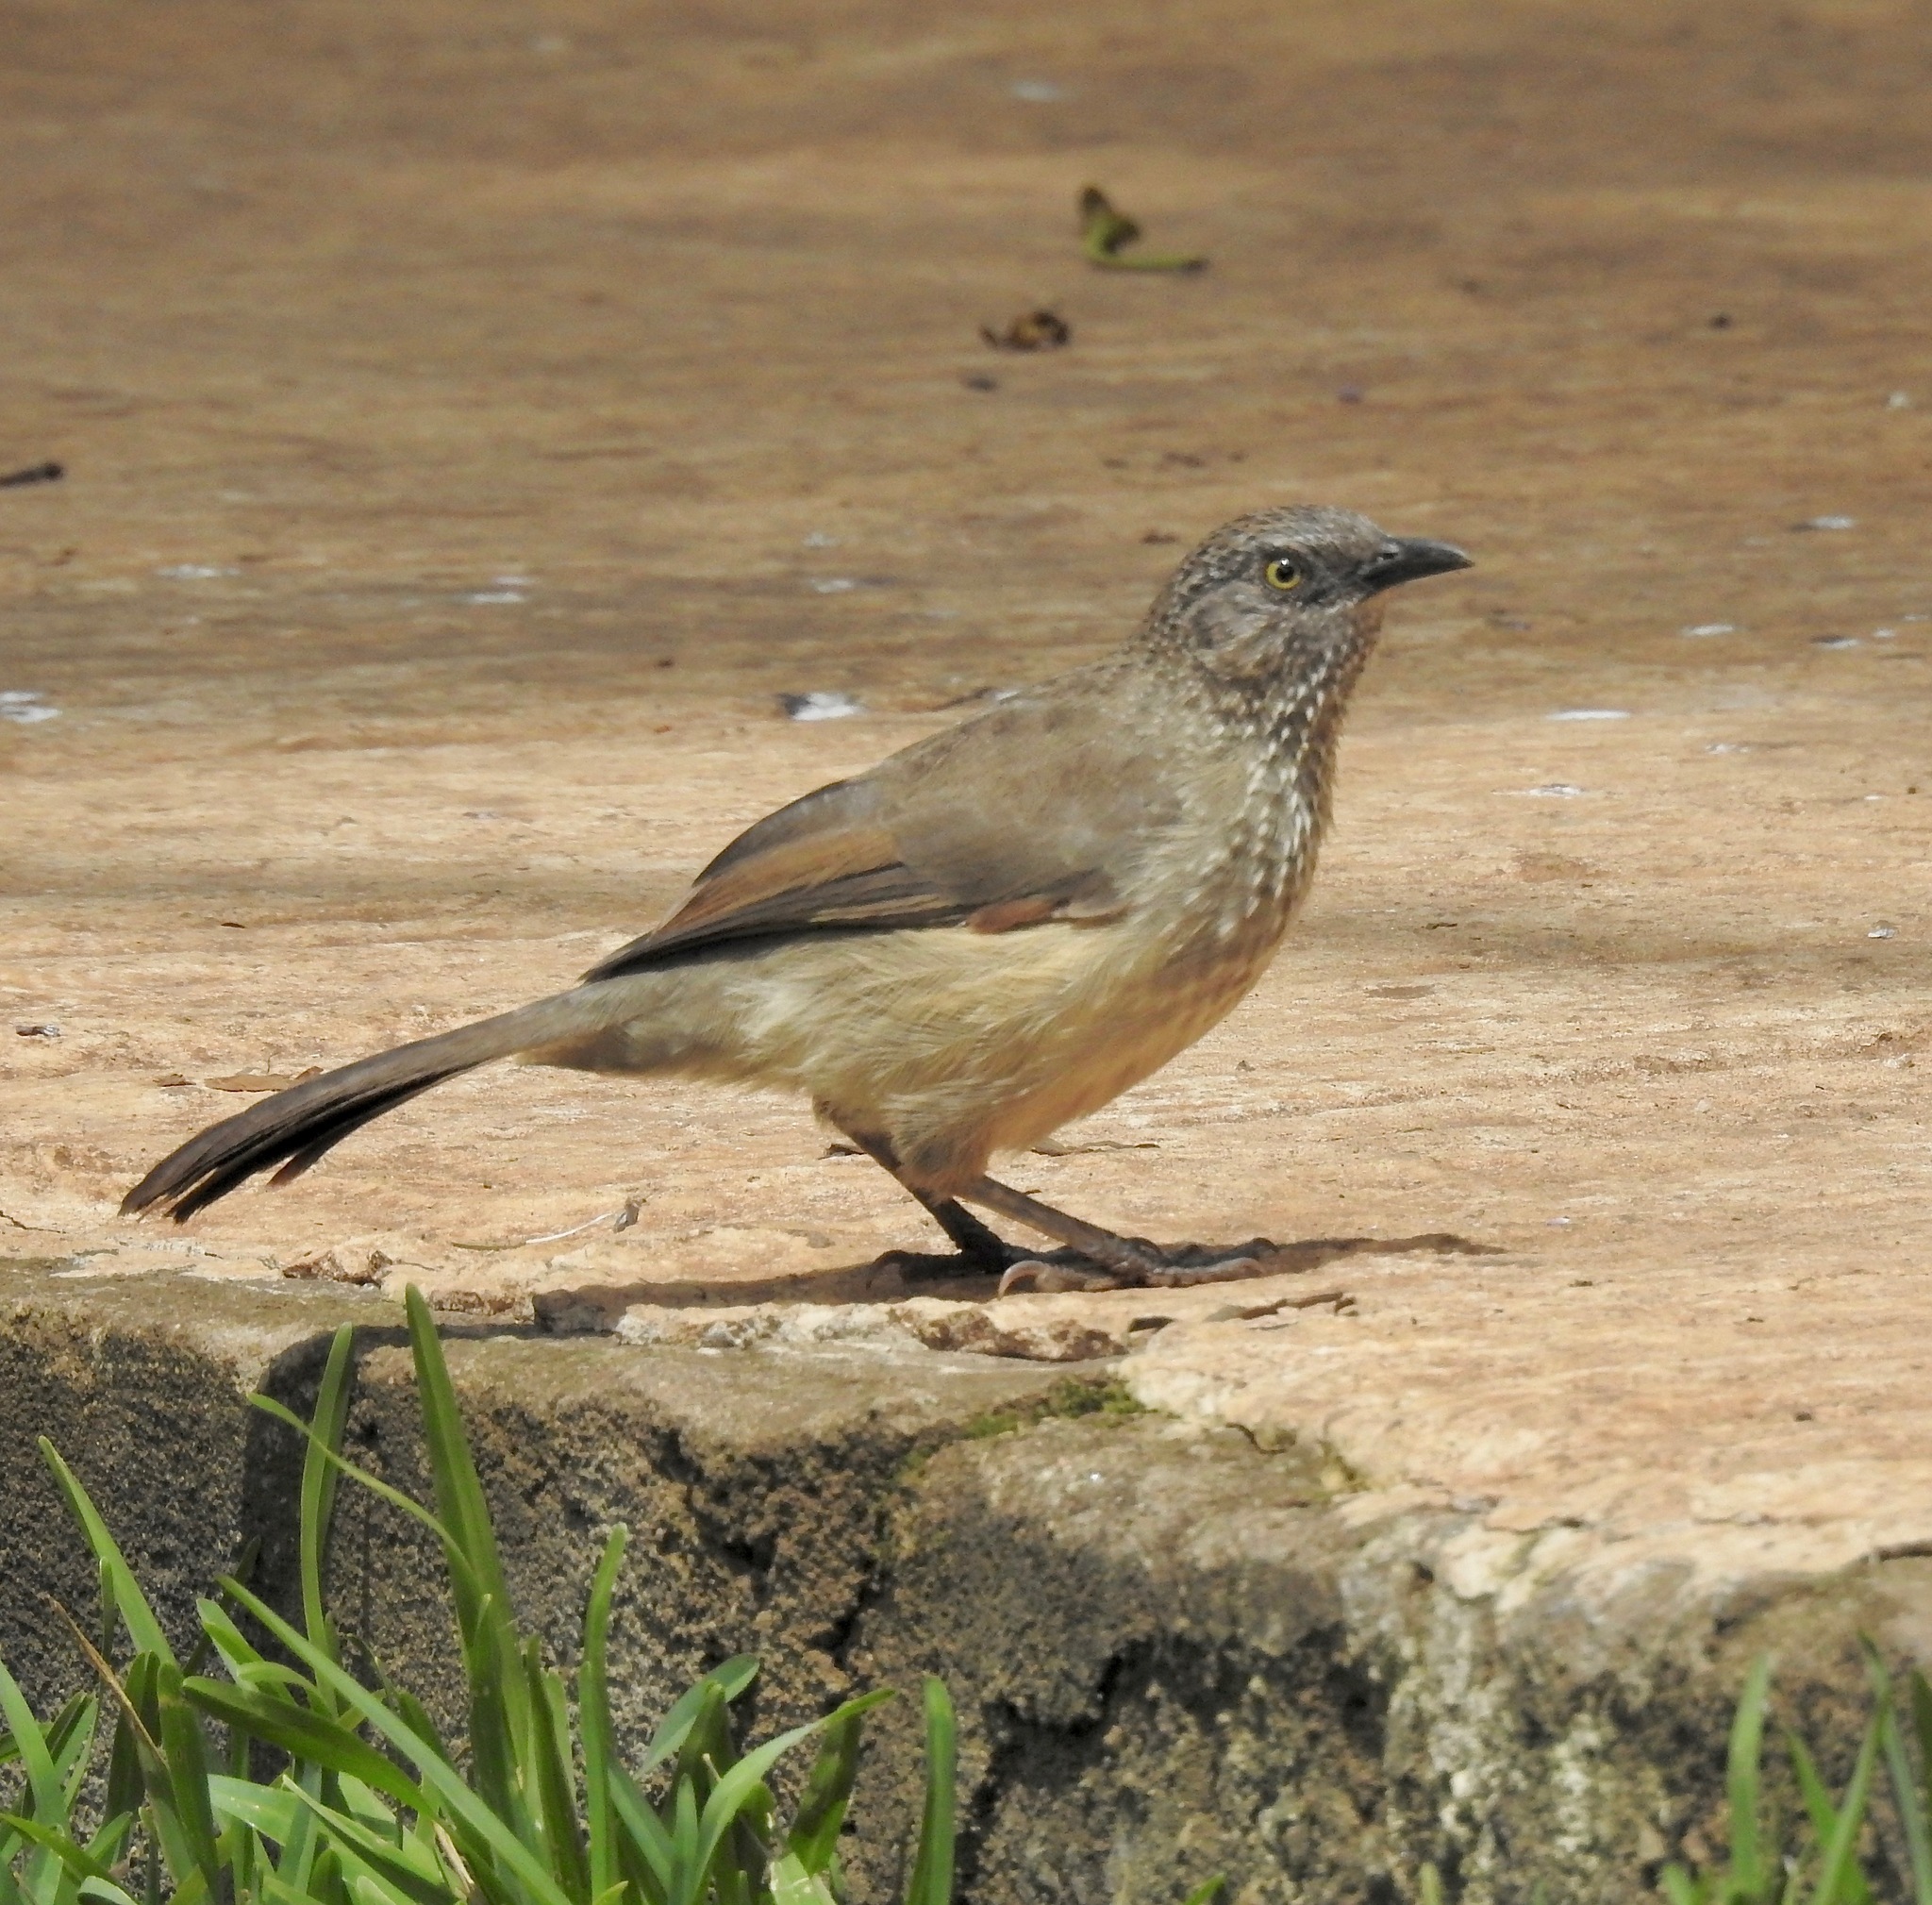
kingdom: Animalia
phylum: Chordata
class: Aves
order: Passeriformes
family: Leiothrichidae
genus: Turdoides
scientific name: Turdoides jardineii
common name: Arrow-marked babbler
